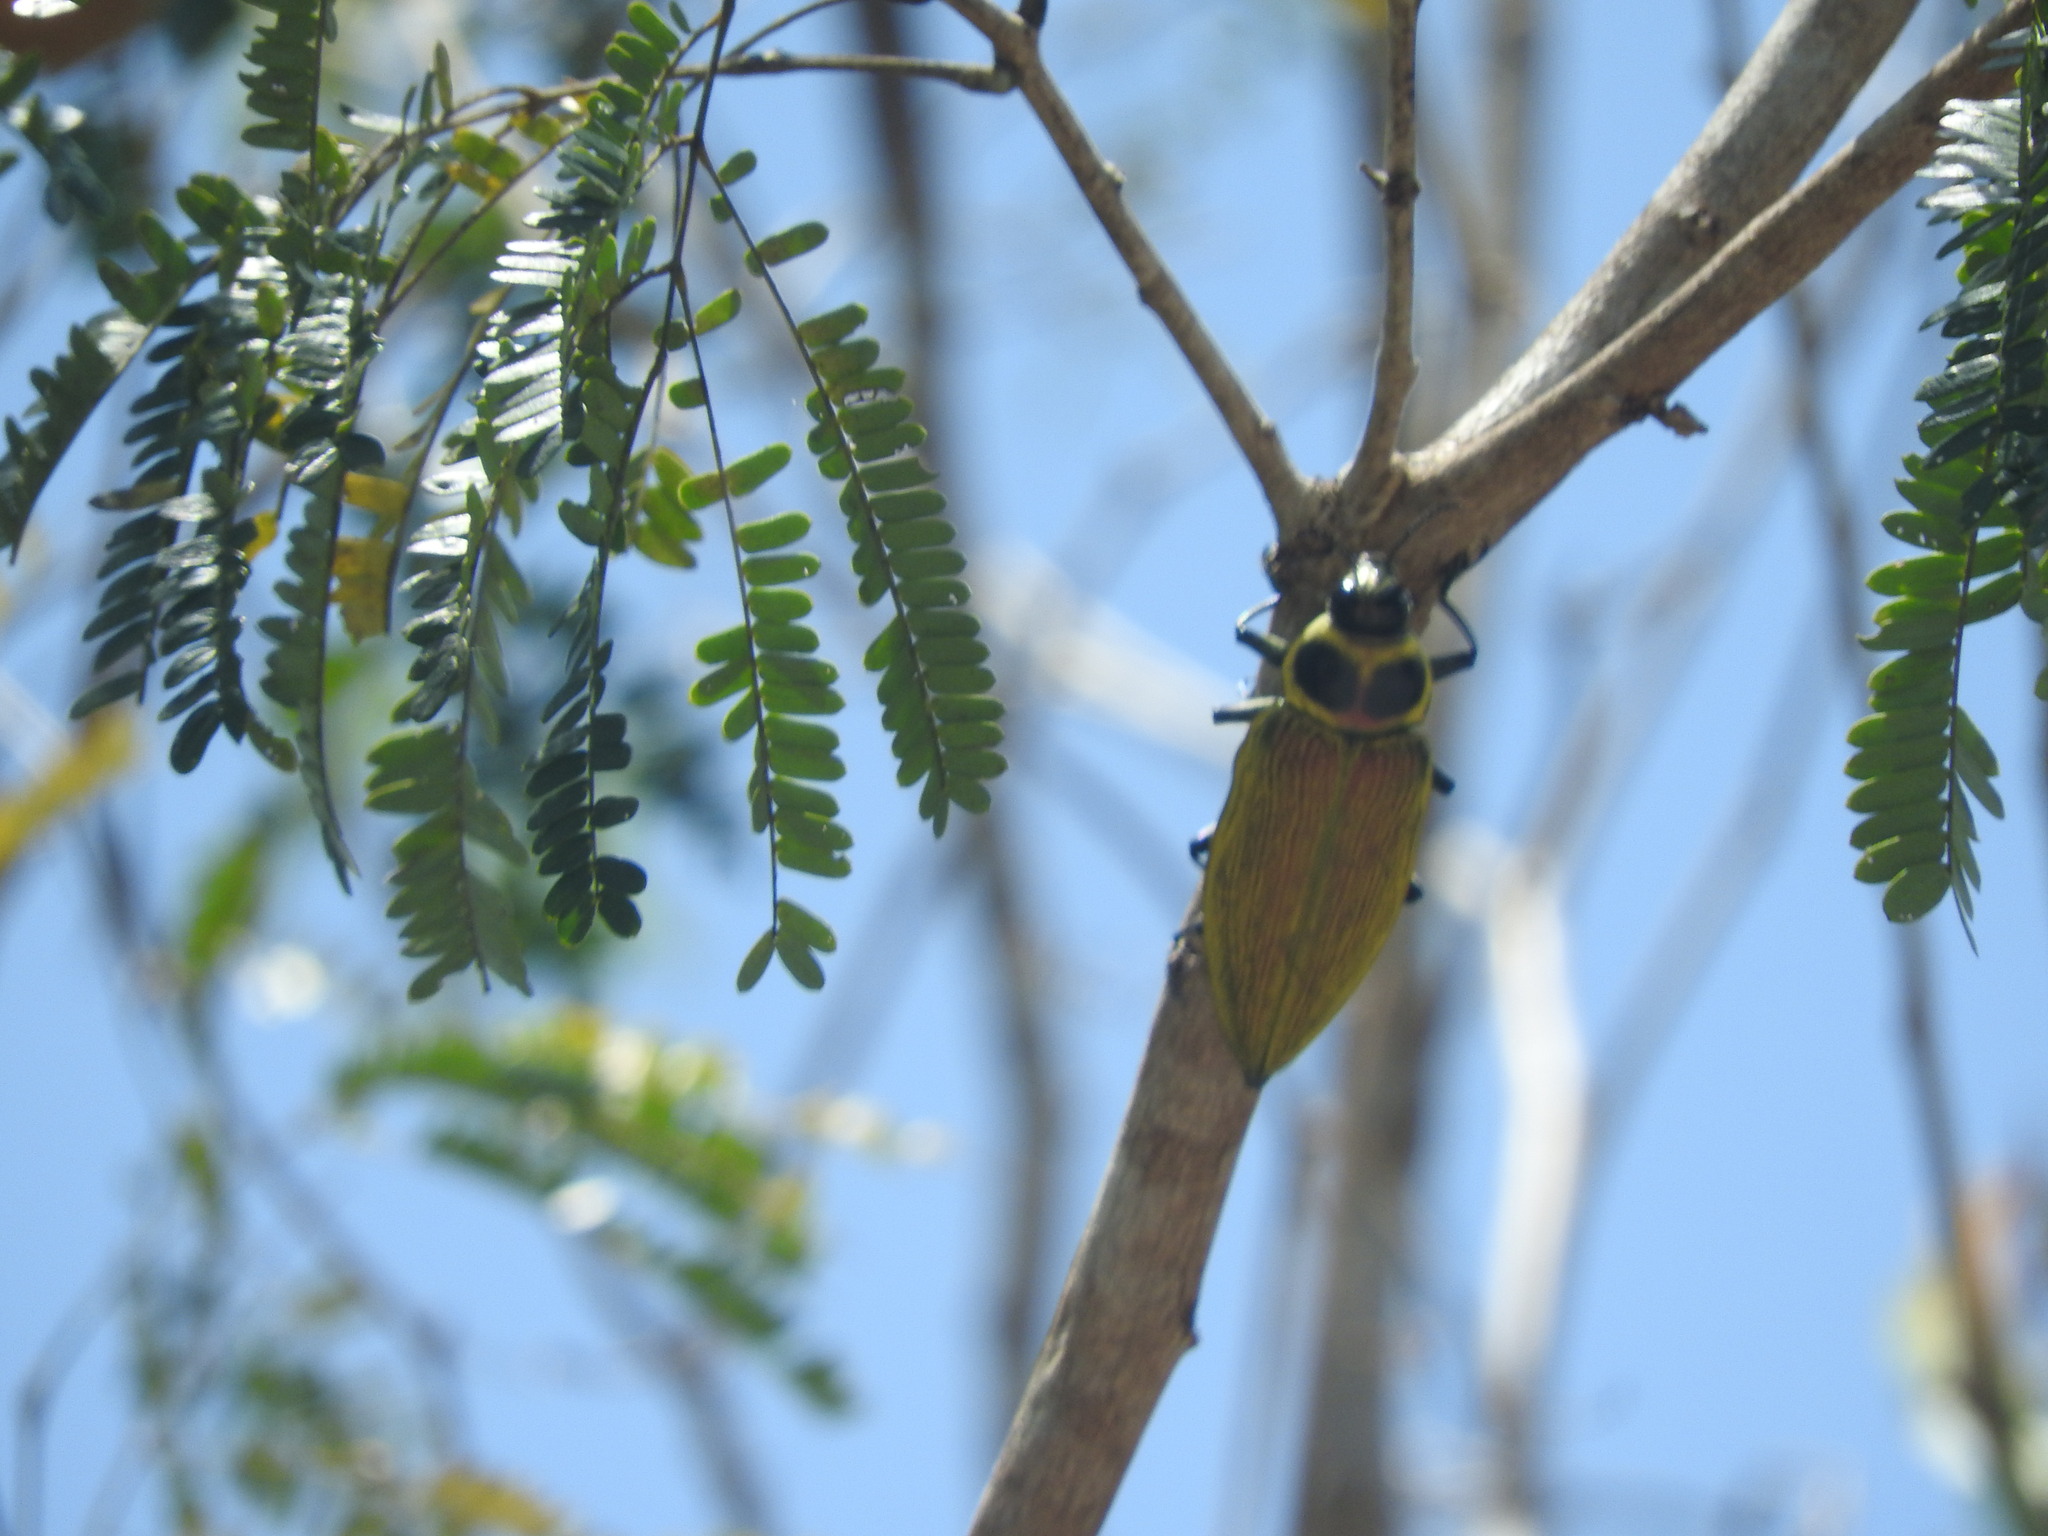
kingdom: Animalia
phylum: Arthropoda
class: Insecta
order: Coleoptera
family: Buprestidae
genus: Euchroma
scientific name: Euchroma giganteum
